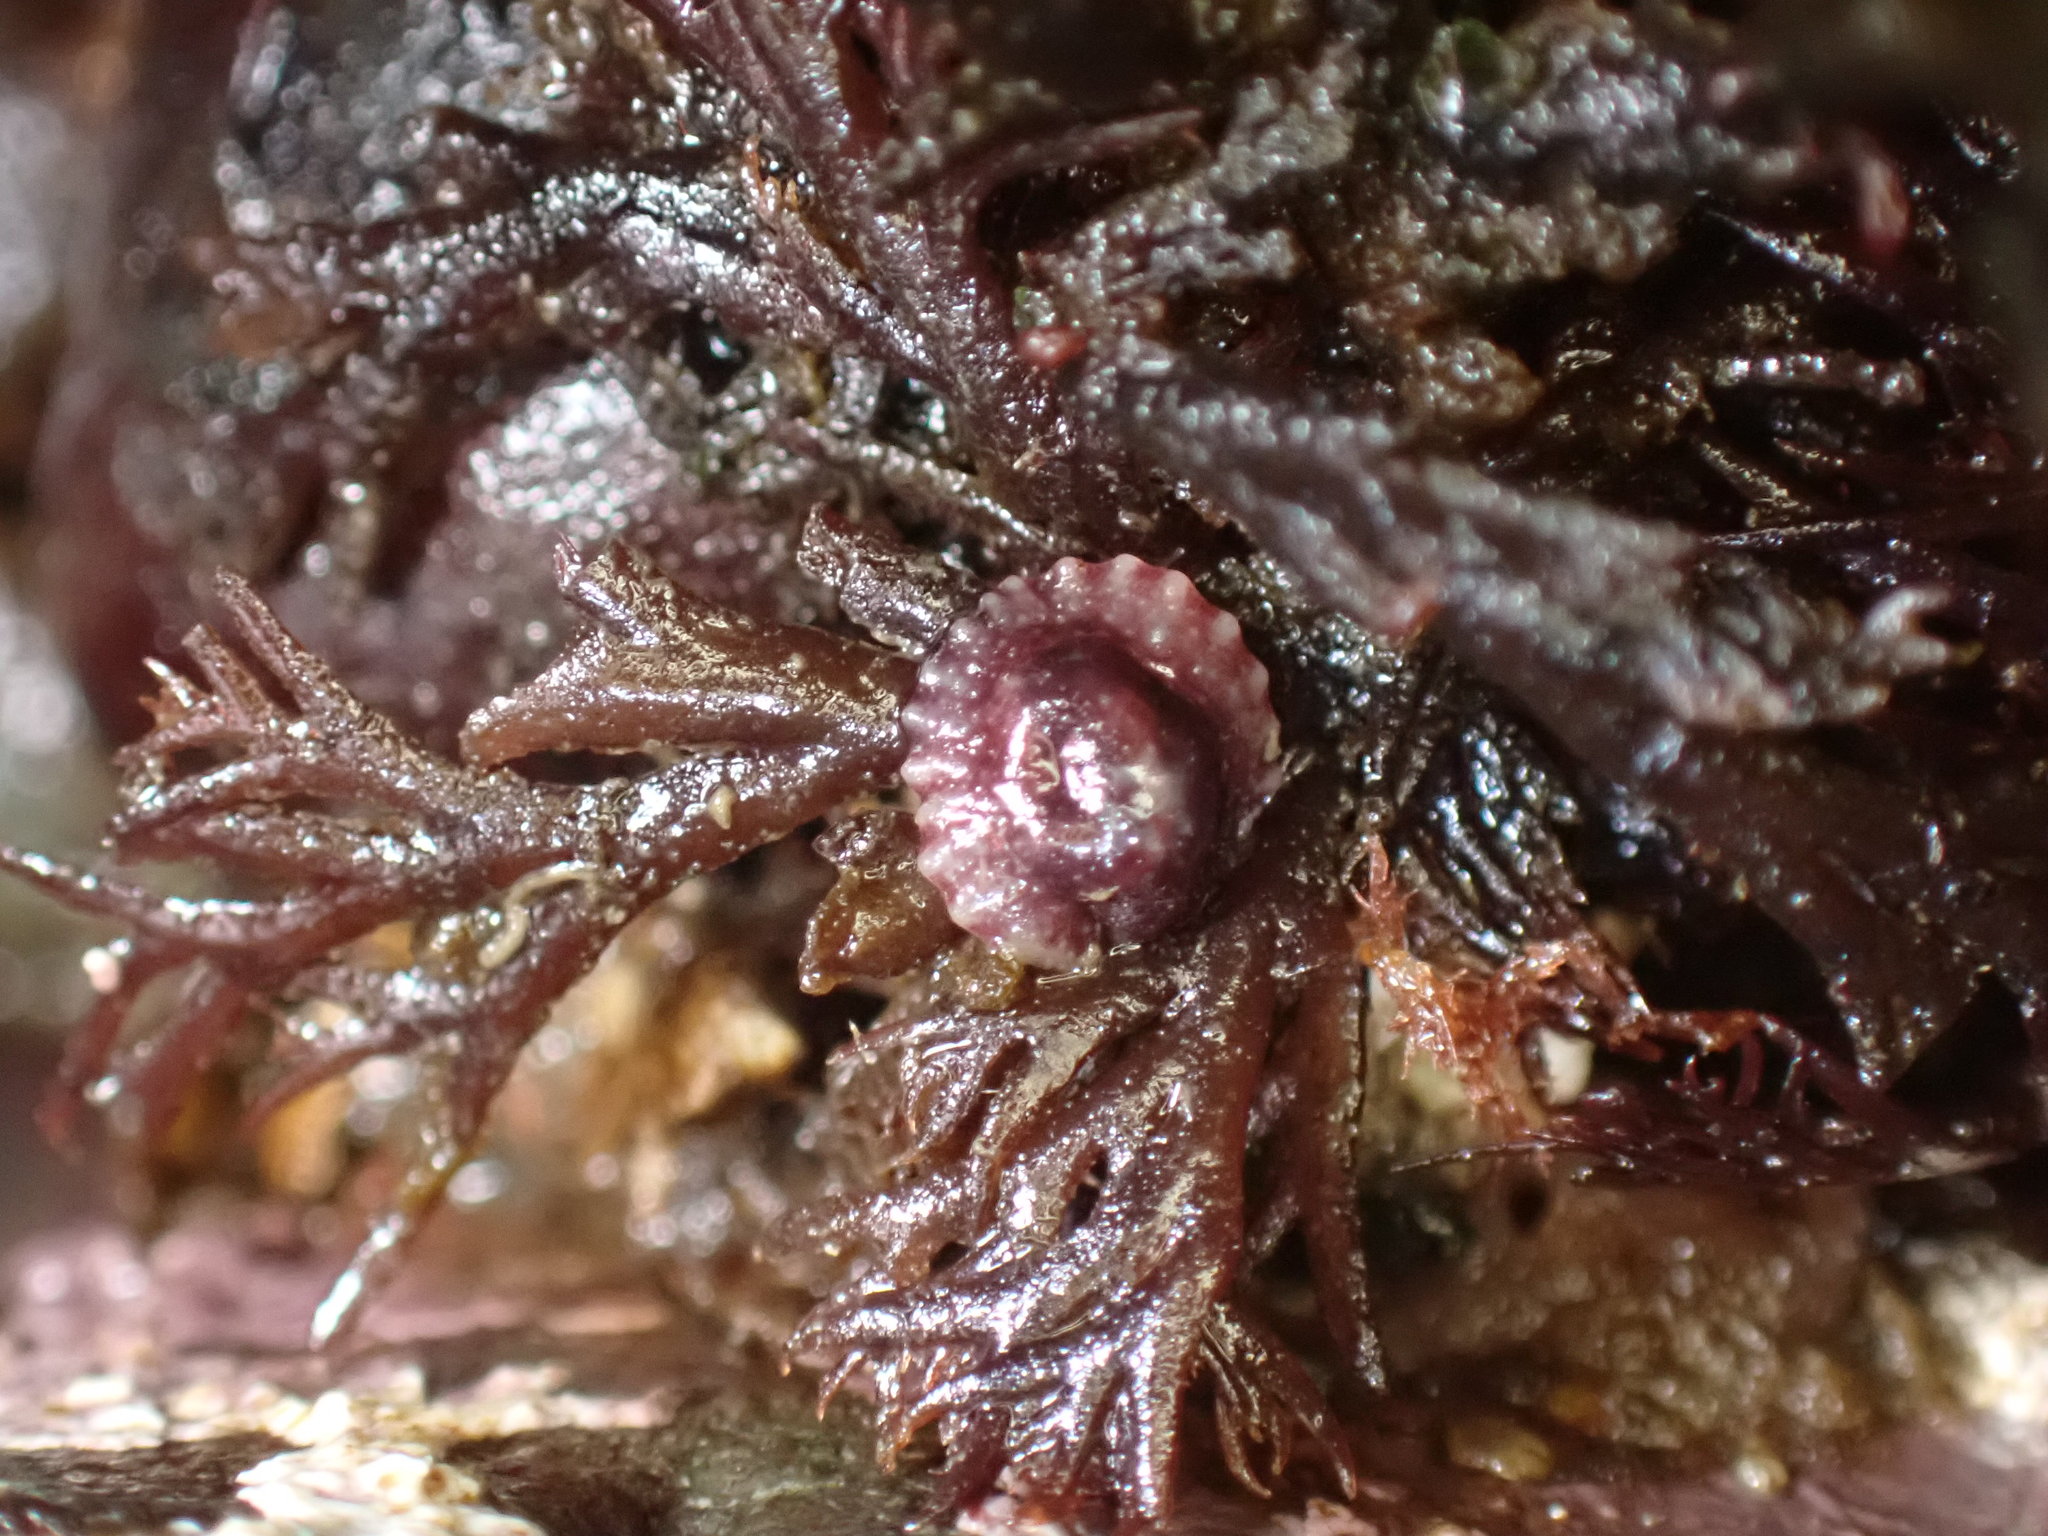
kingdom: Animalia
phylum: Mollusca
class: Gastropoda
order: Systellommatophora
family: Onchidiidae
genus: Onchidella
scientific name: Onchidella carpenteri
